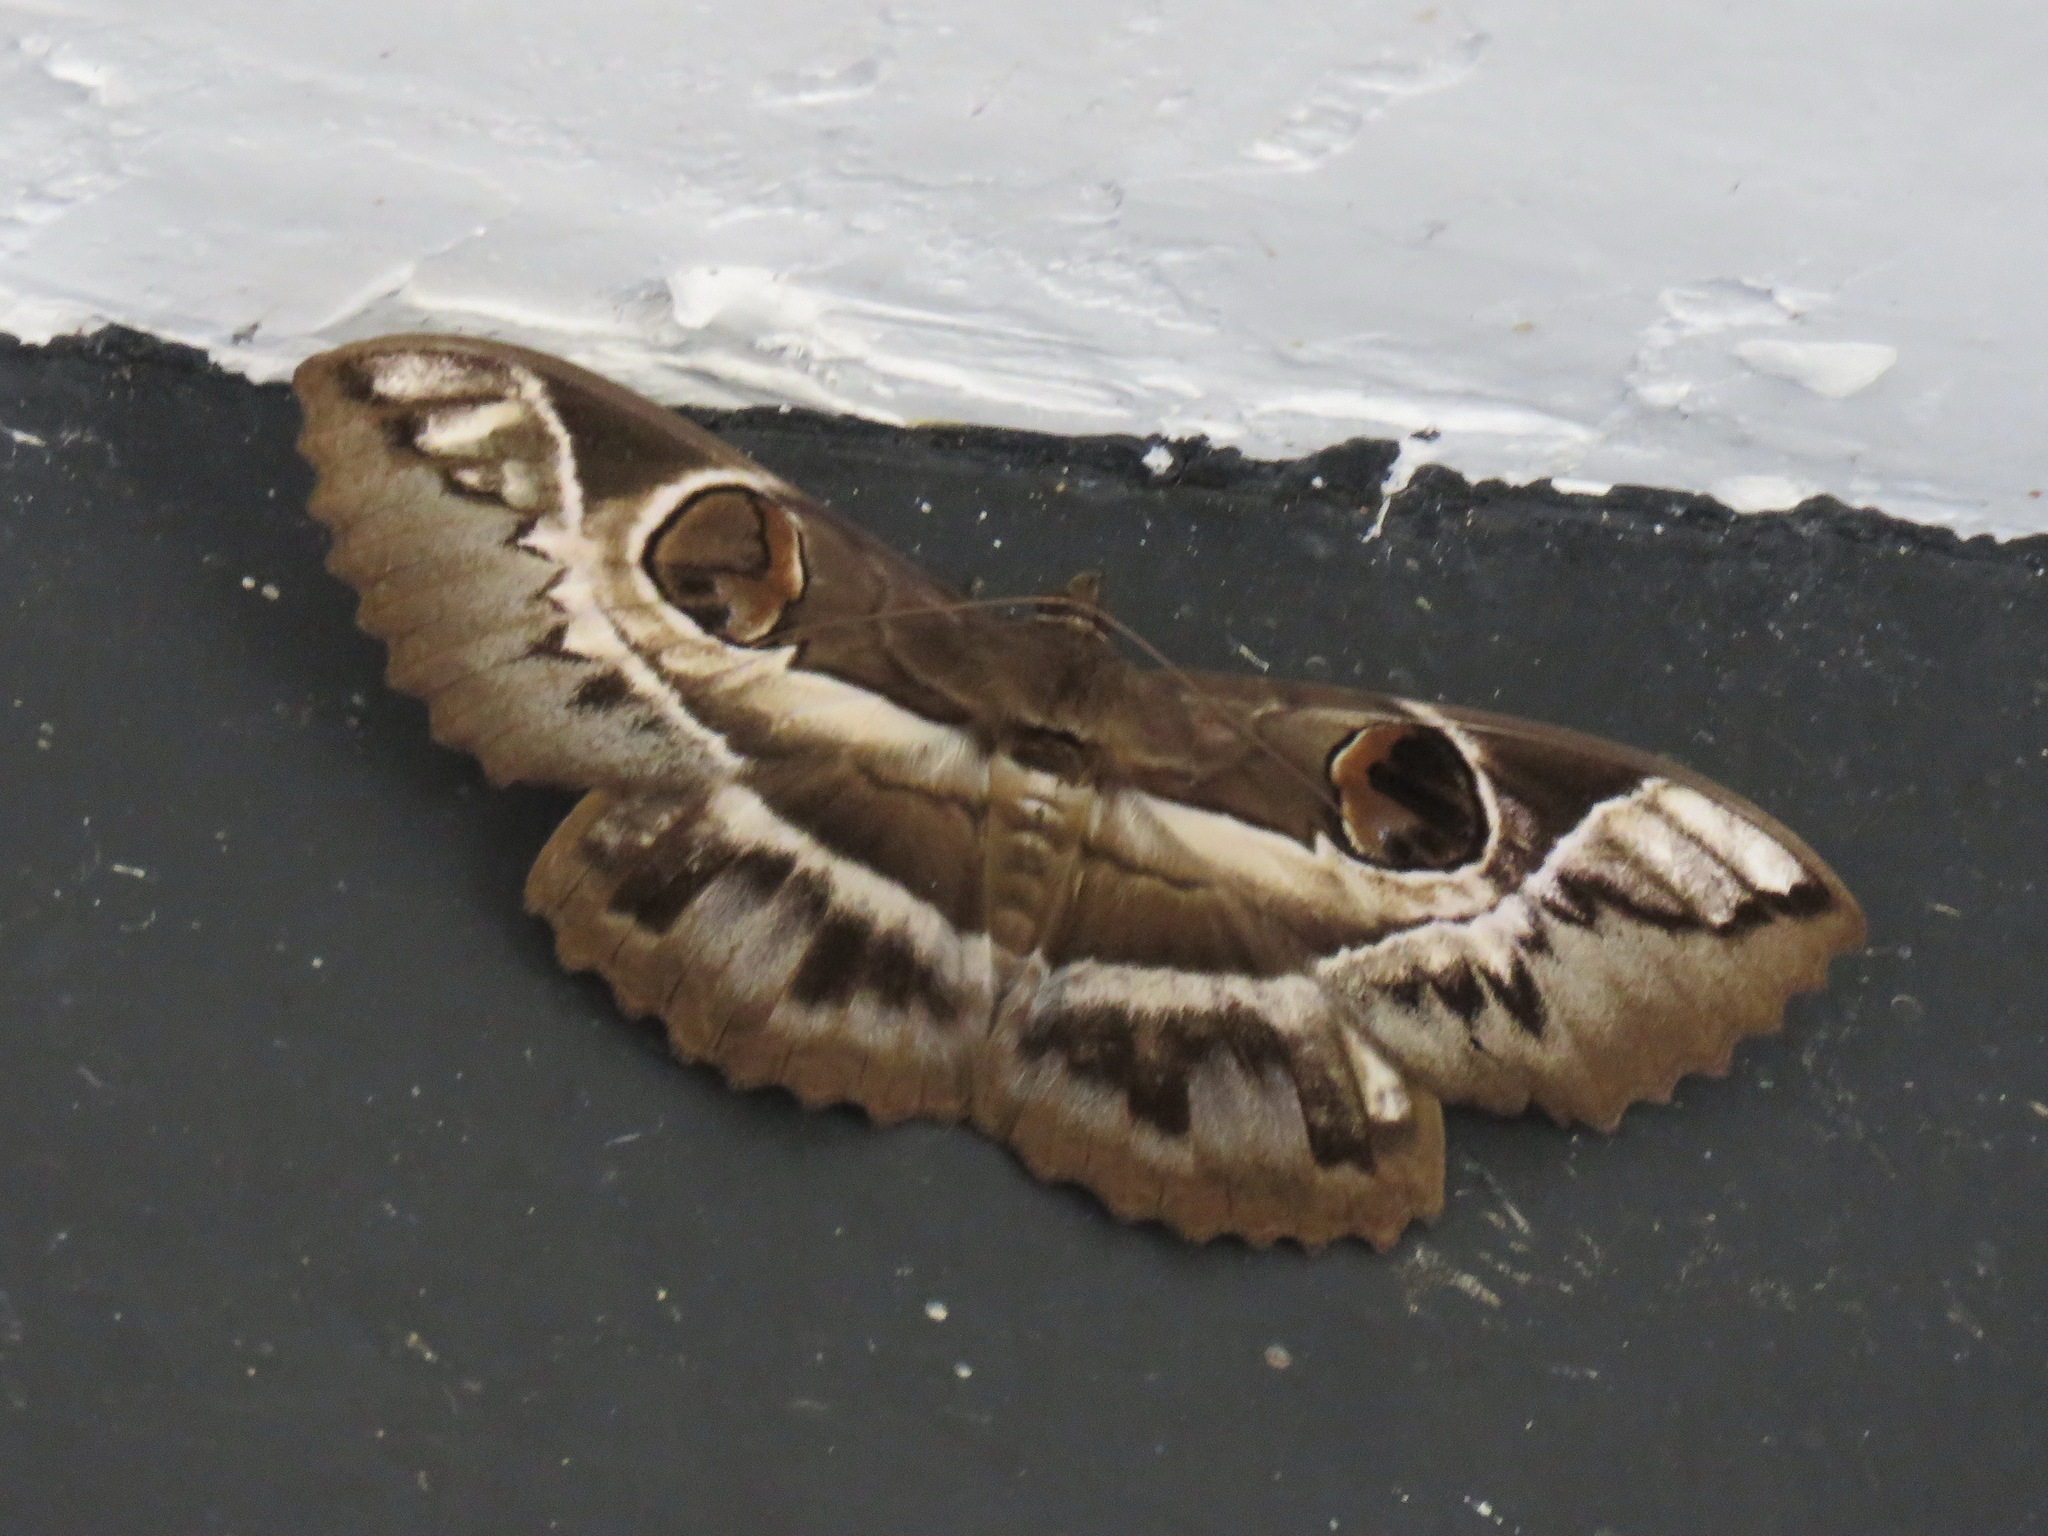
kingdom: Animalia
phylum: Arthropoda
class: Insecta
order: Lepidoptera
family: Erebidae
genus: Erebus
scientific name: Erebus ephesperis
